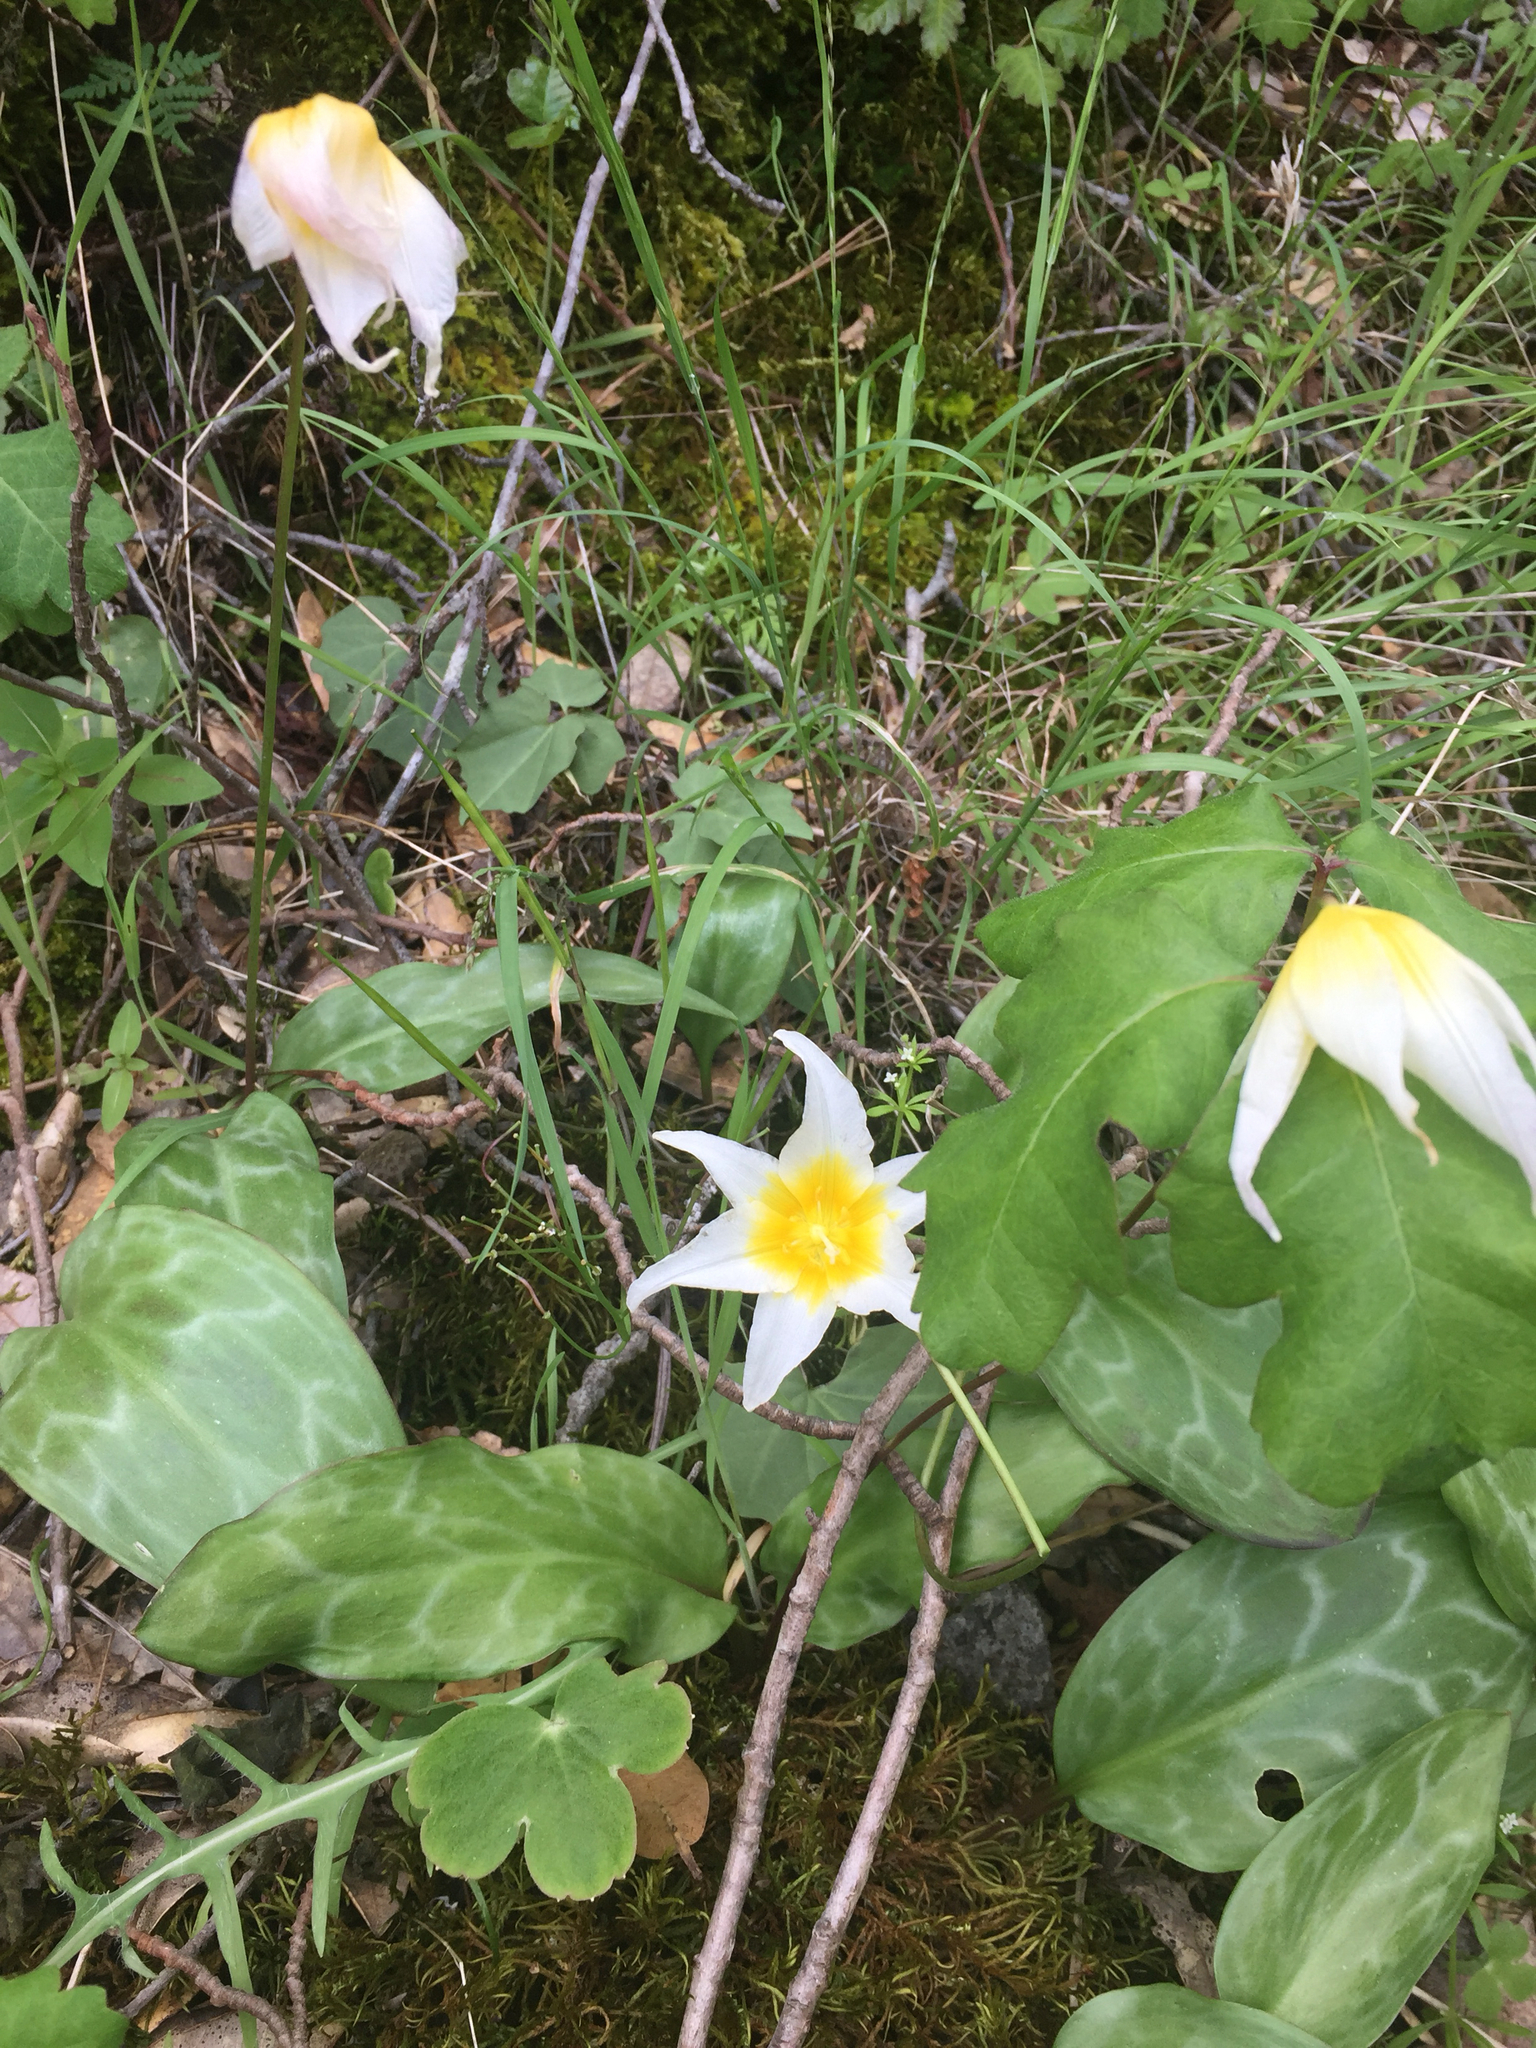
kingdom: Plantae
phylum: Tracheophyta
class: Liliopsida
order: Liliales
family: Liliaceae
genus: Erythronium
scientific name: Erythronium helenae
